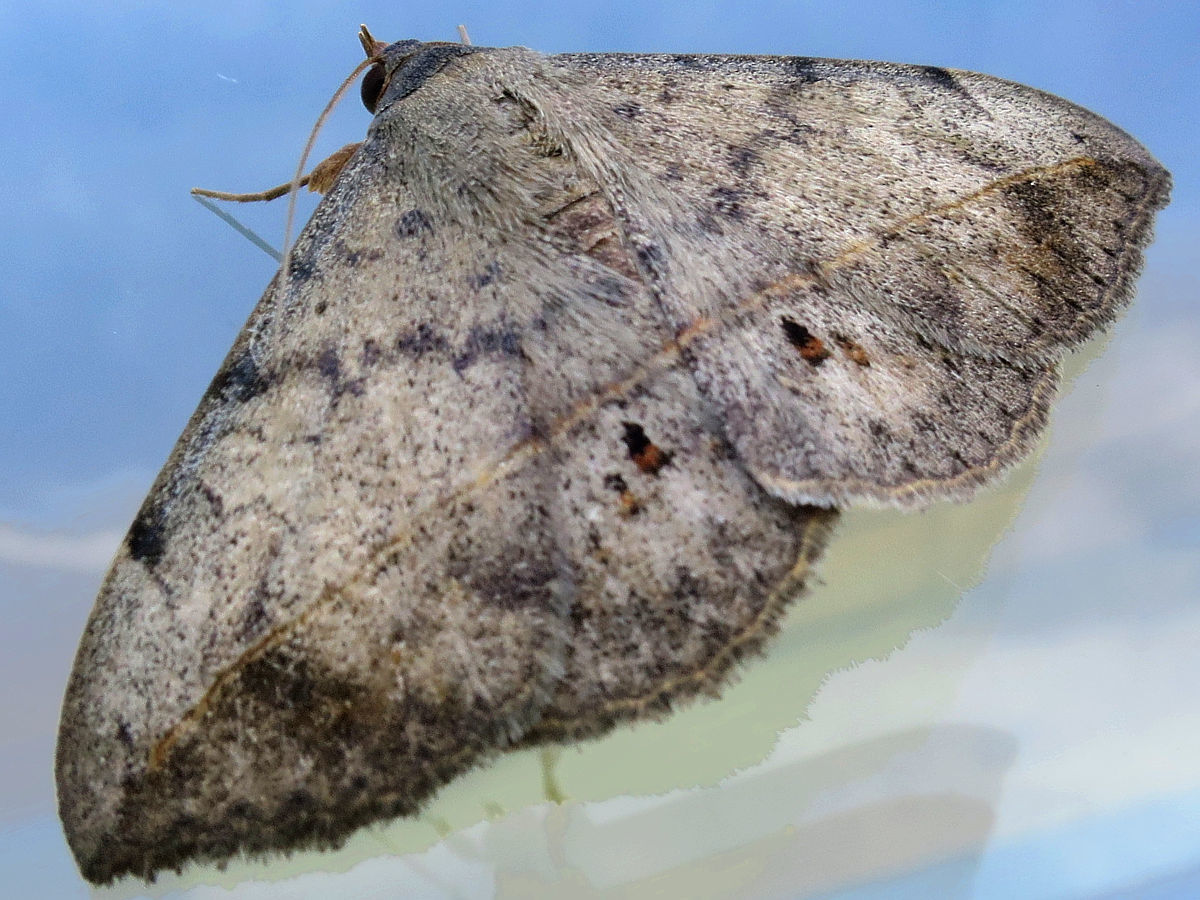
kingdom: Animalia
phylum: Arthropoda
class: Insecta
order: Lepidoptera
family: Erebidae
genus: Anticarsia
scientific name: Anticarsia gemmatalis
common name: Cutworm moth
